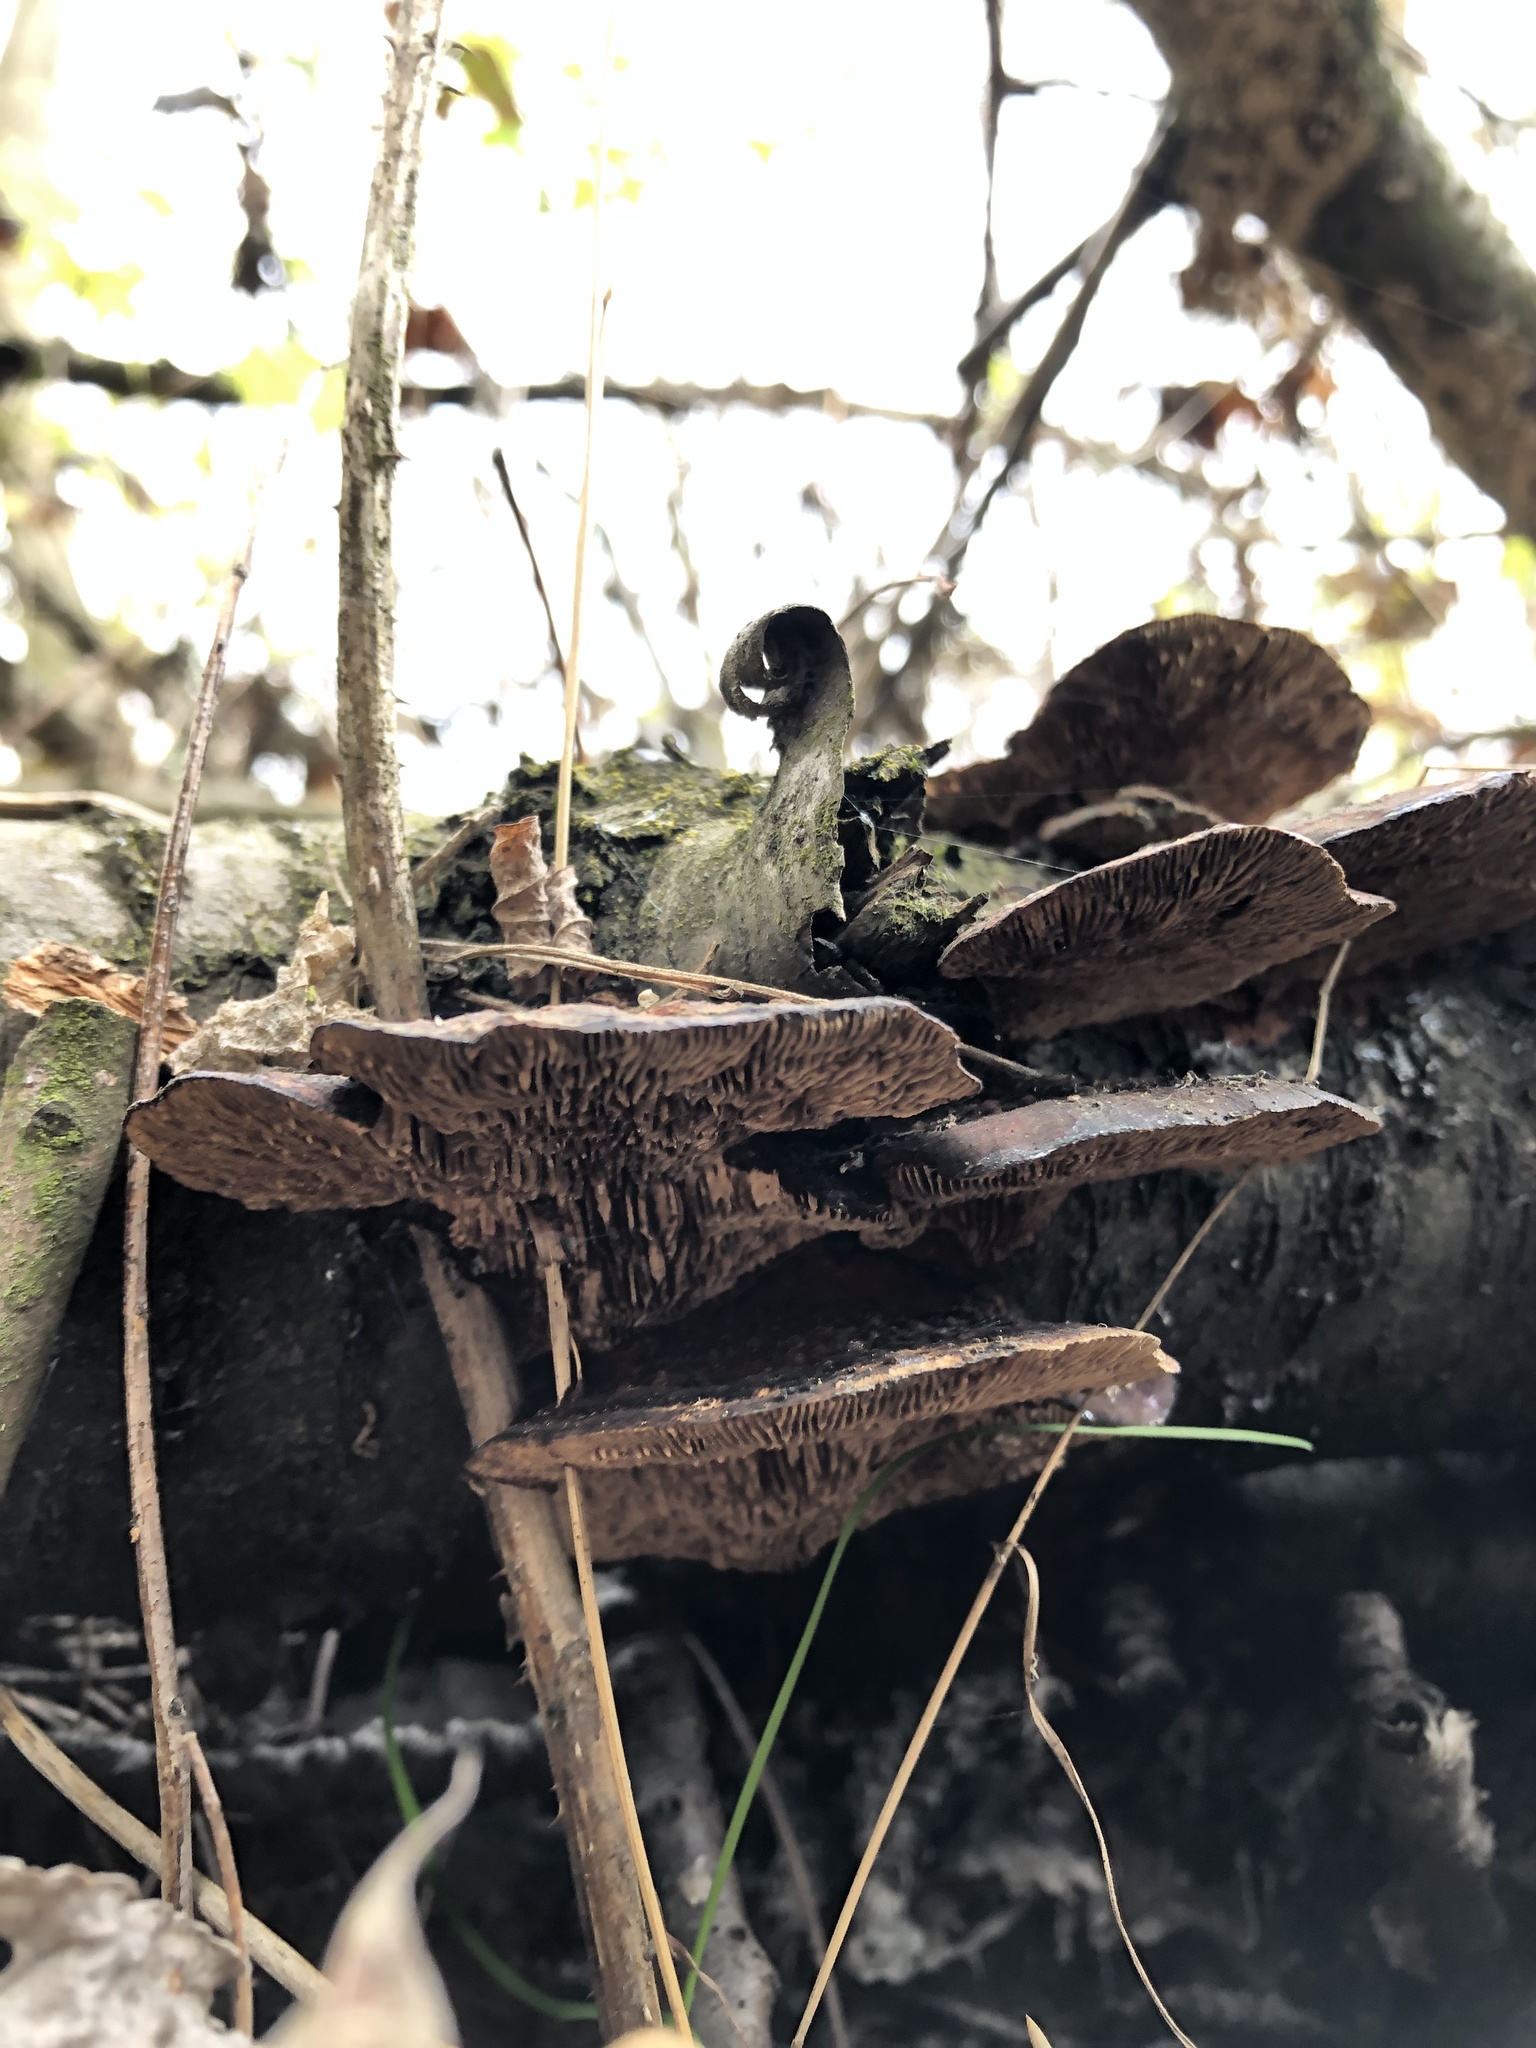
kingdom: Fungi
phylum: Basidiomycota
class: Agaricomycetes
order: Polyporales
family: Polyporaceae
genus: Daedaleopsis
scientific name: Daedaleopsis tricolor
